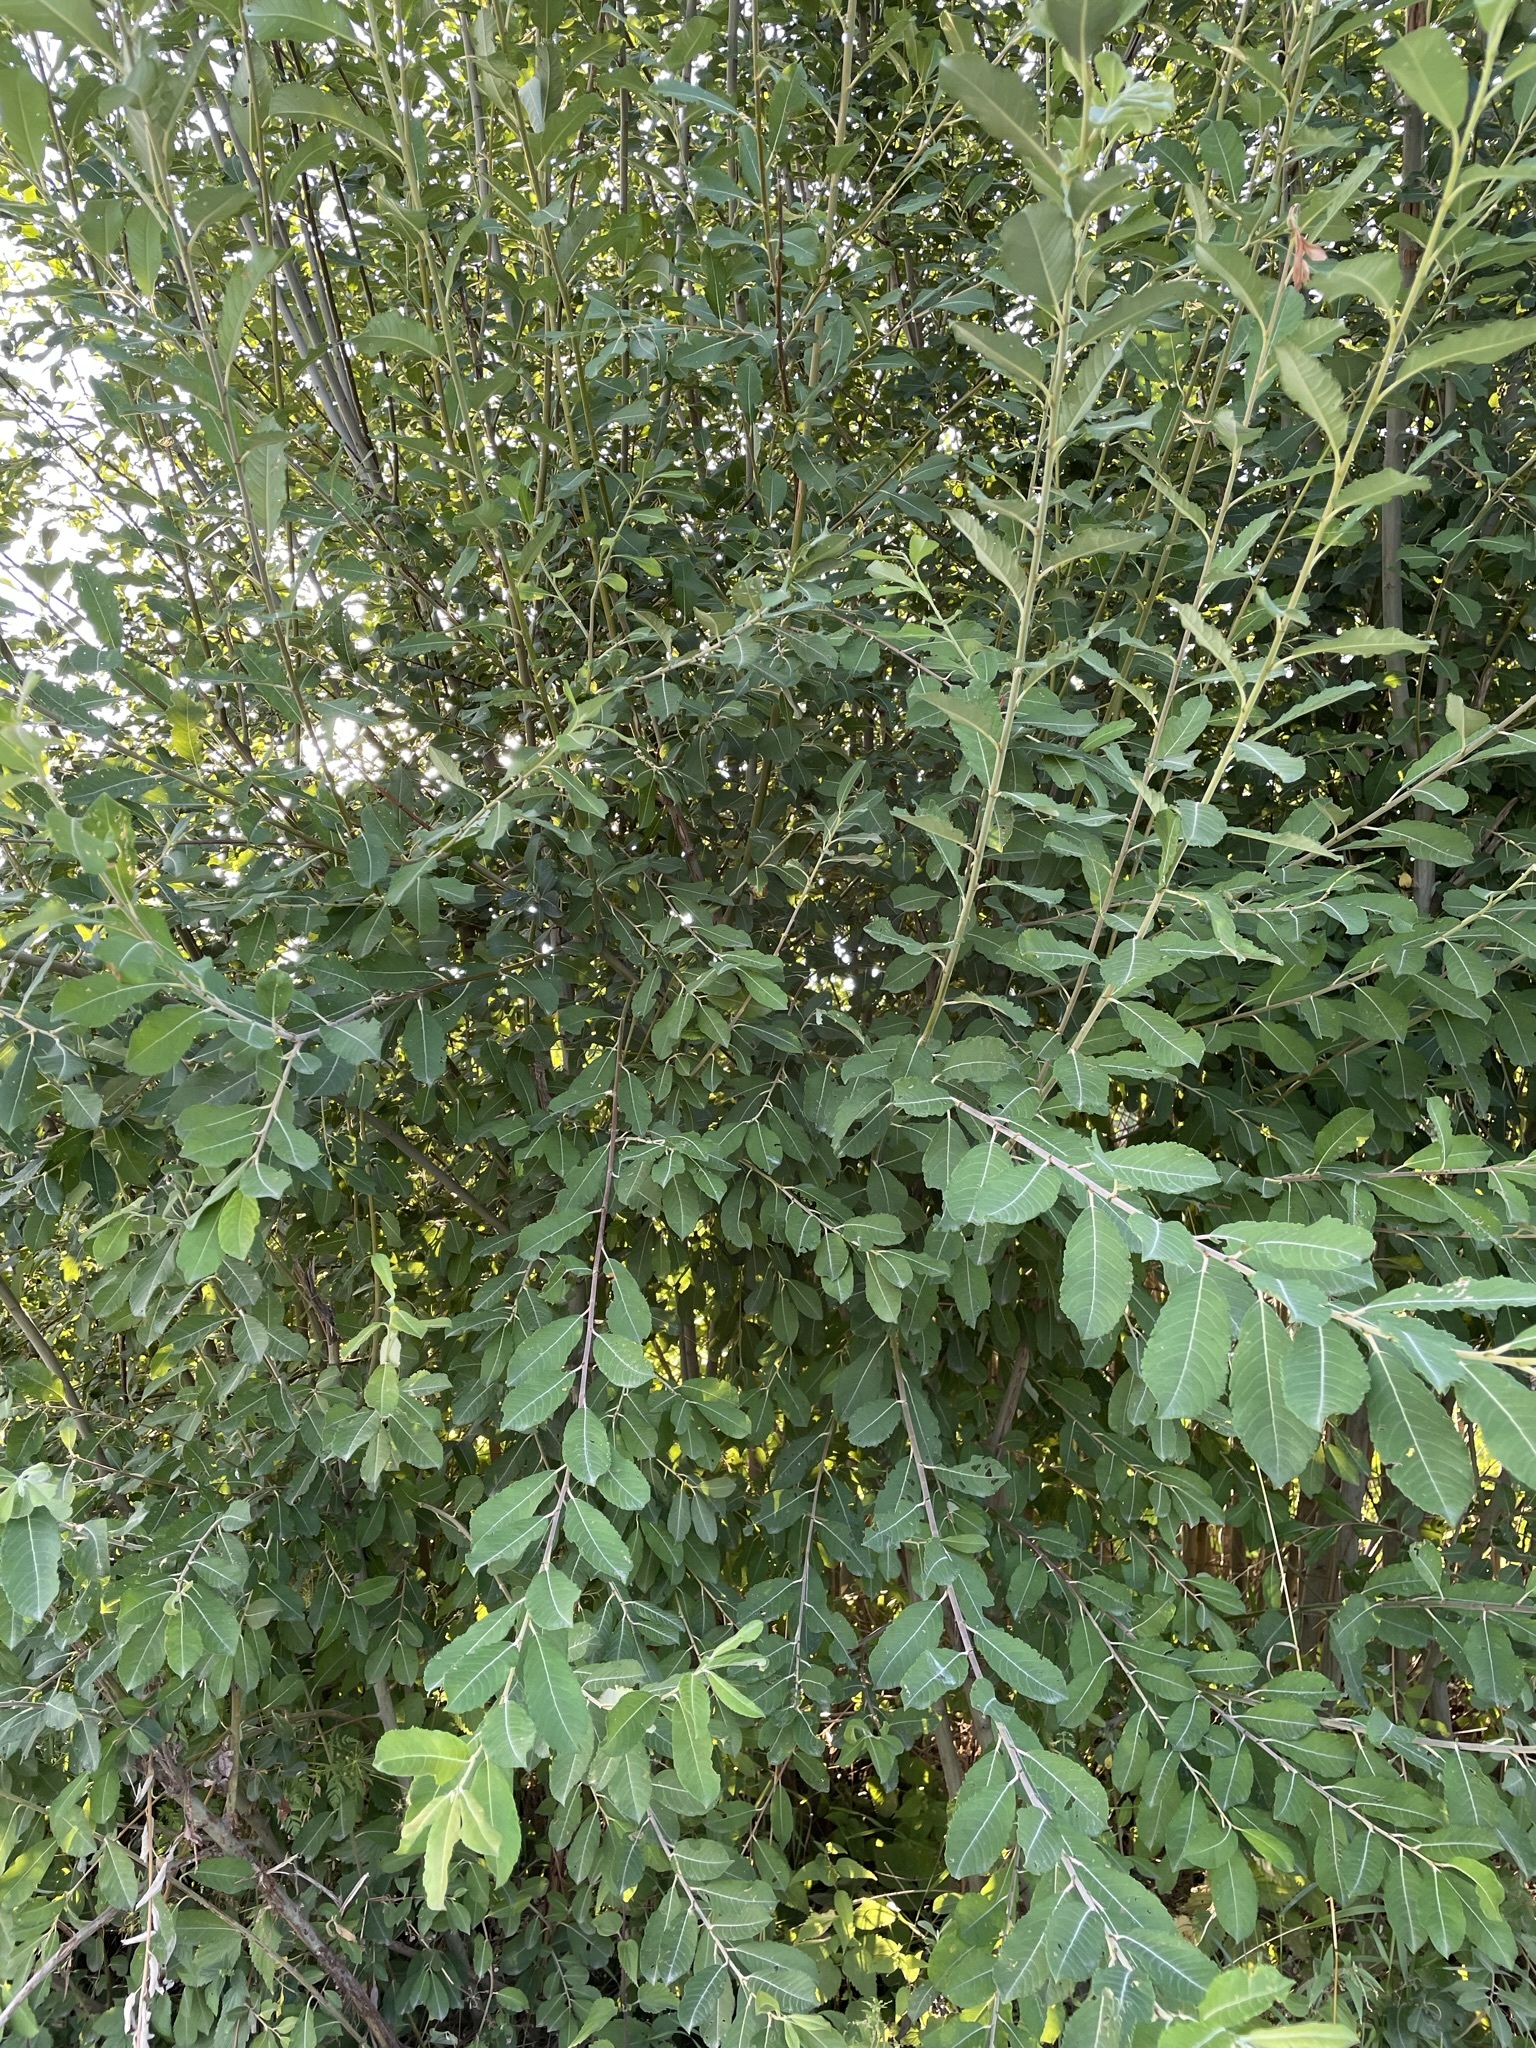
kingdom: Plantae
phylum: Tracheophyta
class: Magnoliopsida
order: Malpighiales
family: Salicaceae
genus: Salix
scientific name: Salix cinerea
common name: Common sallow
